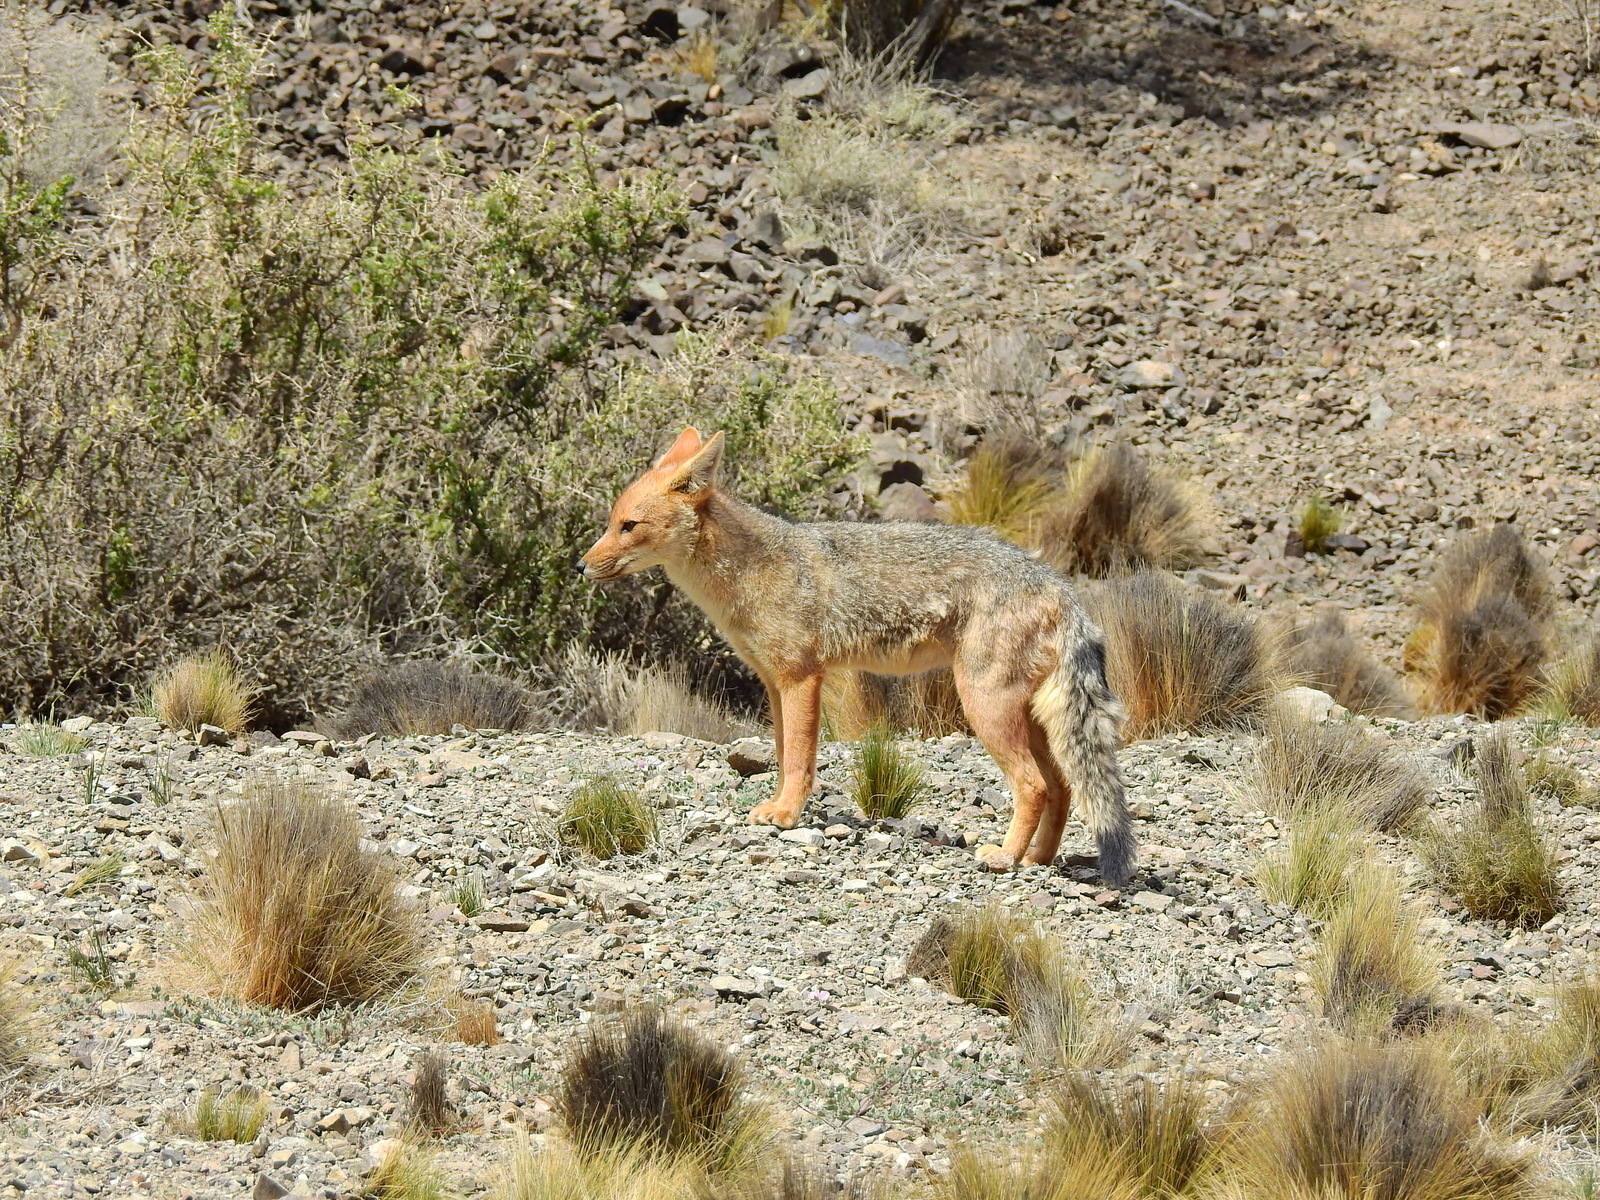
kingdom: Animalia
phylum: Chordata
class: Mammalia
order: Carnivora
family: Canidae
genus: Lycalopex
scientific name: Lycalopex culpaeus
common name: Culpeo
